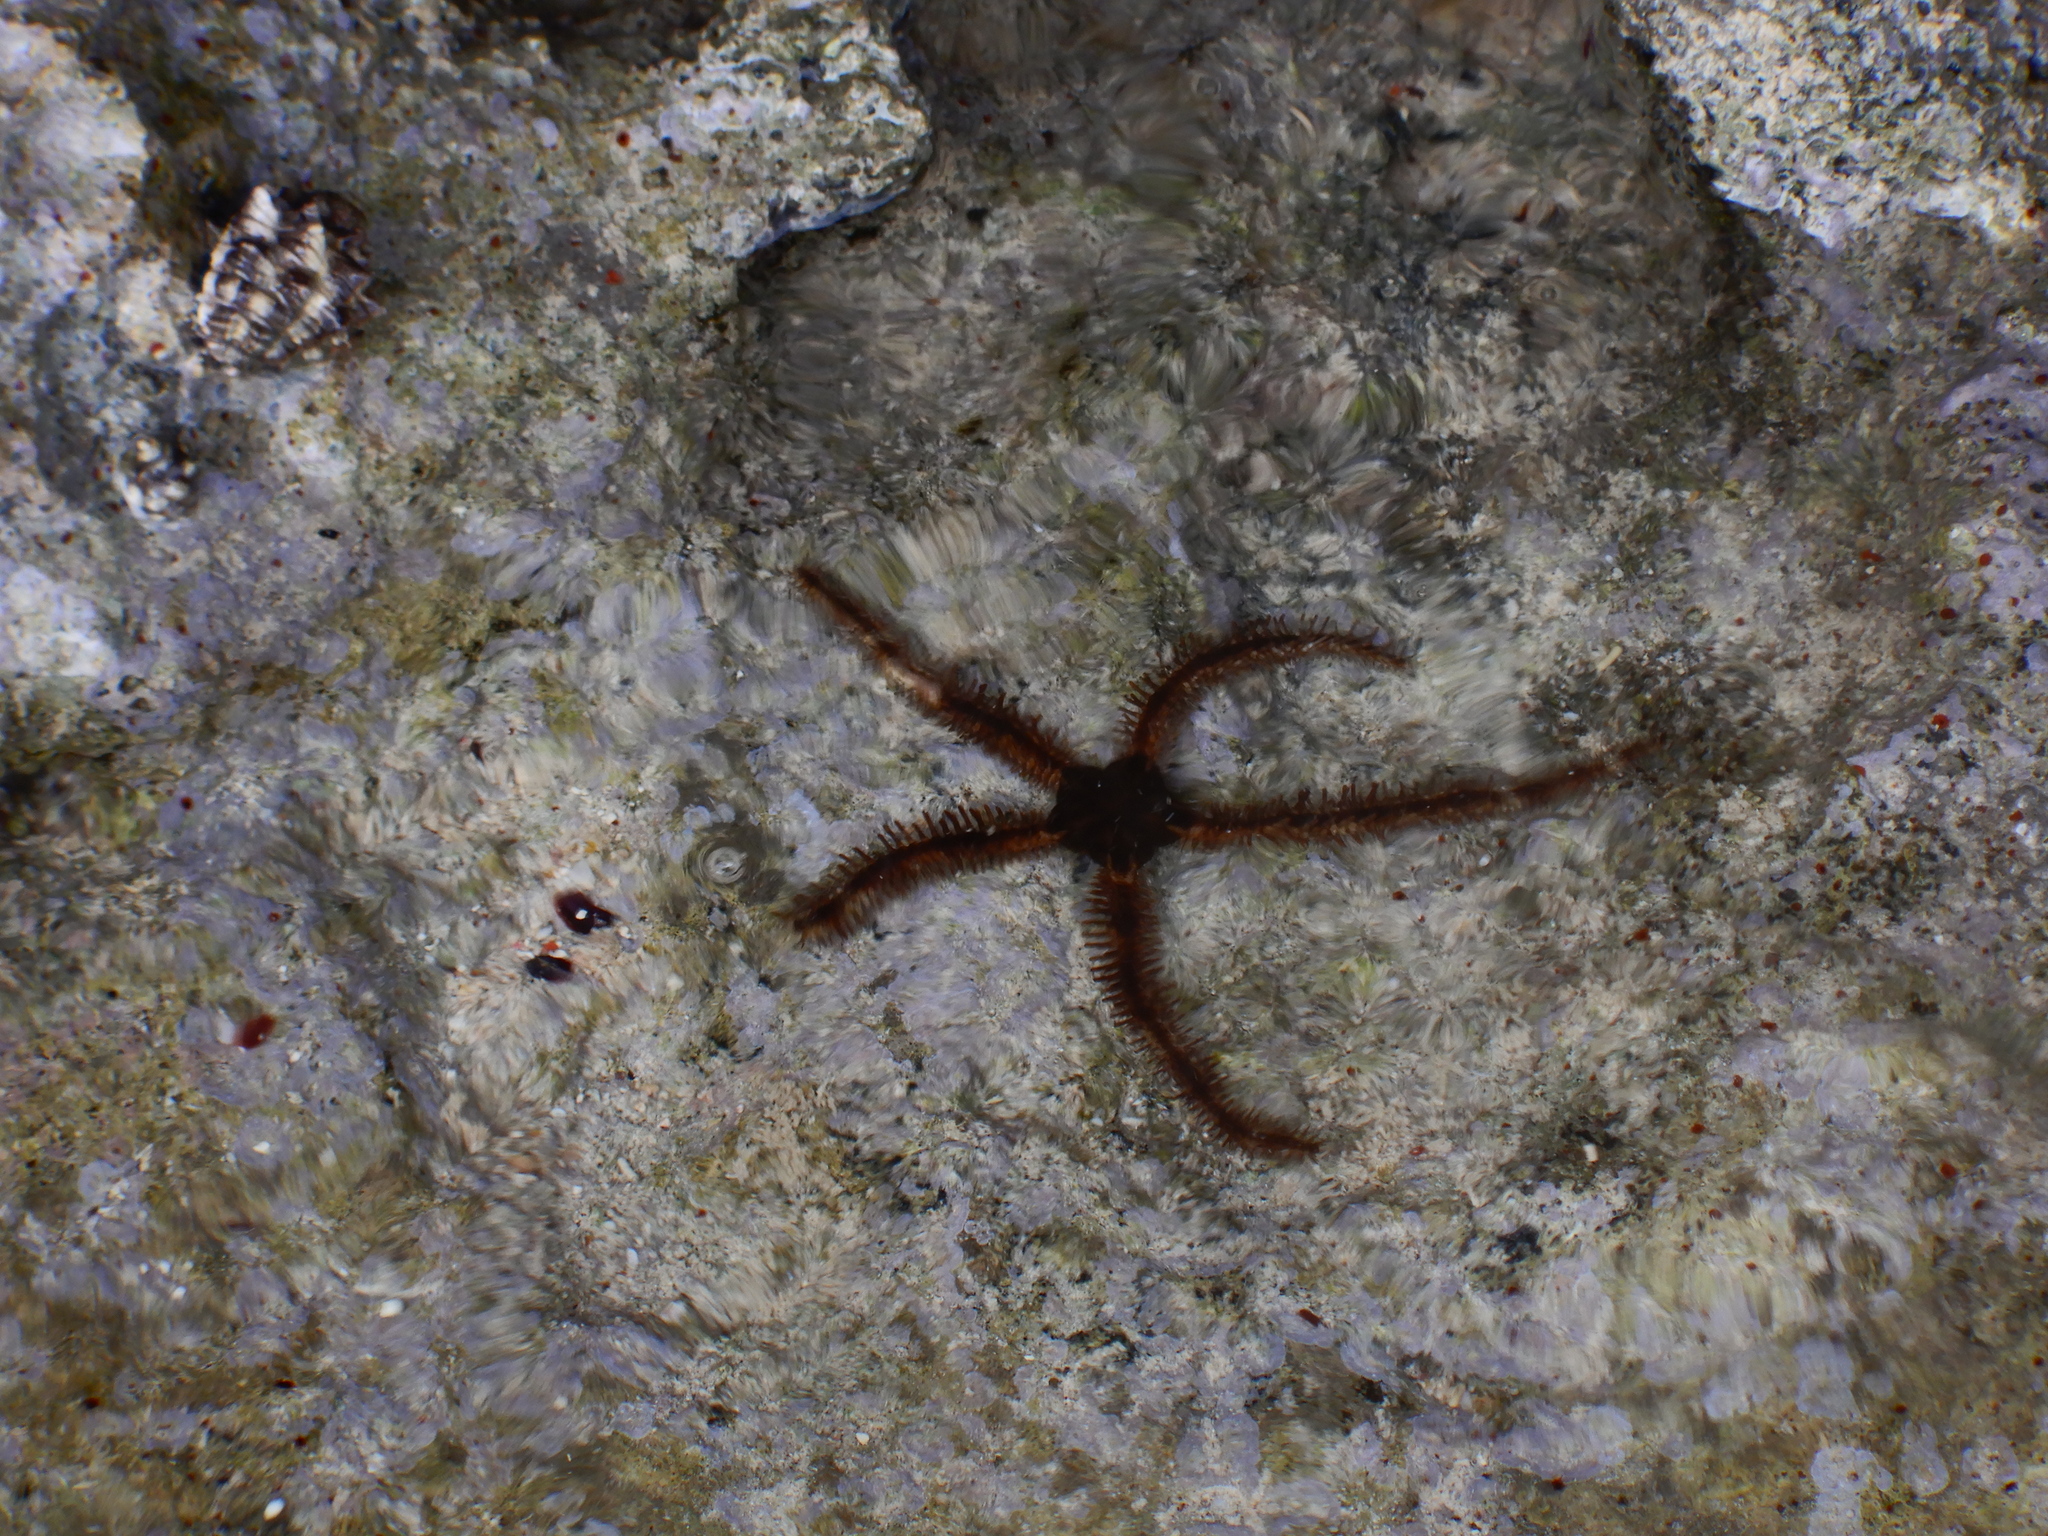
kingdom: Animalia
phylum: Echinodermata
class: Ophiuroidea
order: Ophiacanthida
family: Ophiocomidae
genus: Ophiocoma
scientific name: Ophiocoma scolopendrina
